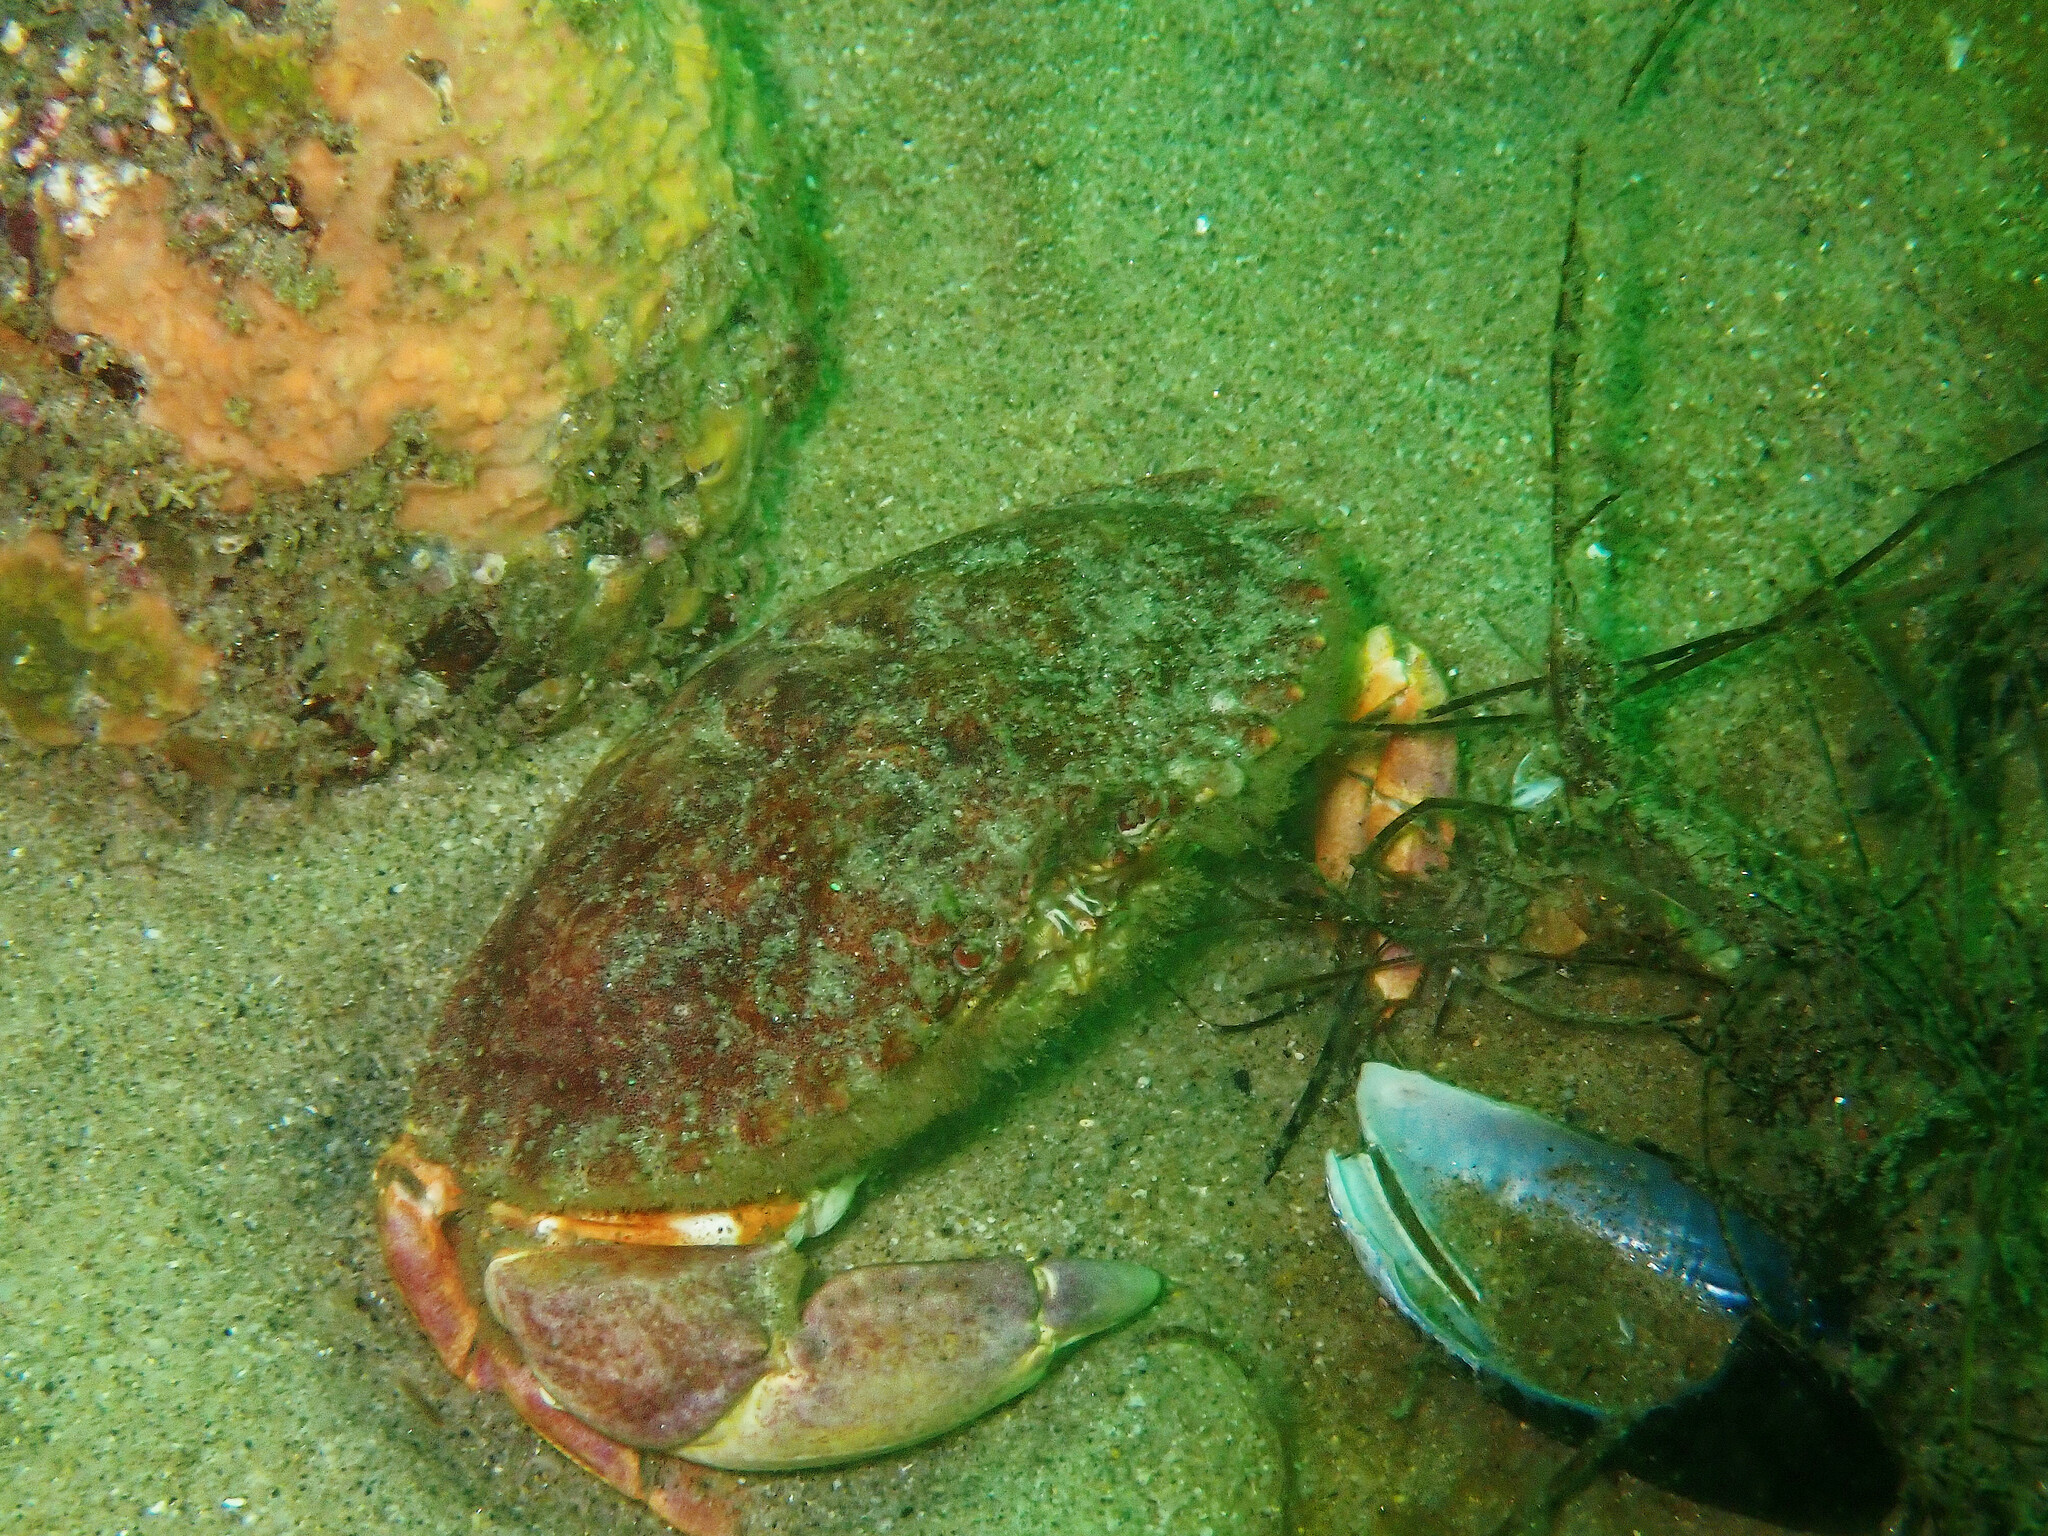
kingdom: Animalia
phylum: Arthropoda
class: Malacostraca
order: Decapoda
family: Cancridae
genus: Metacarcinus
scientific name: Metacarcinus anthonyi
